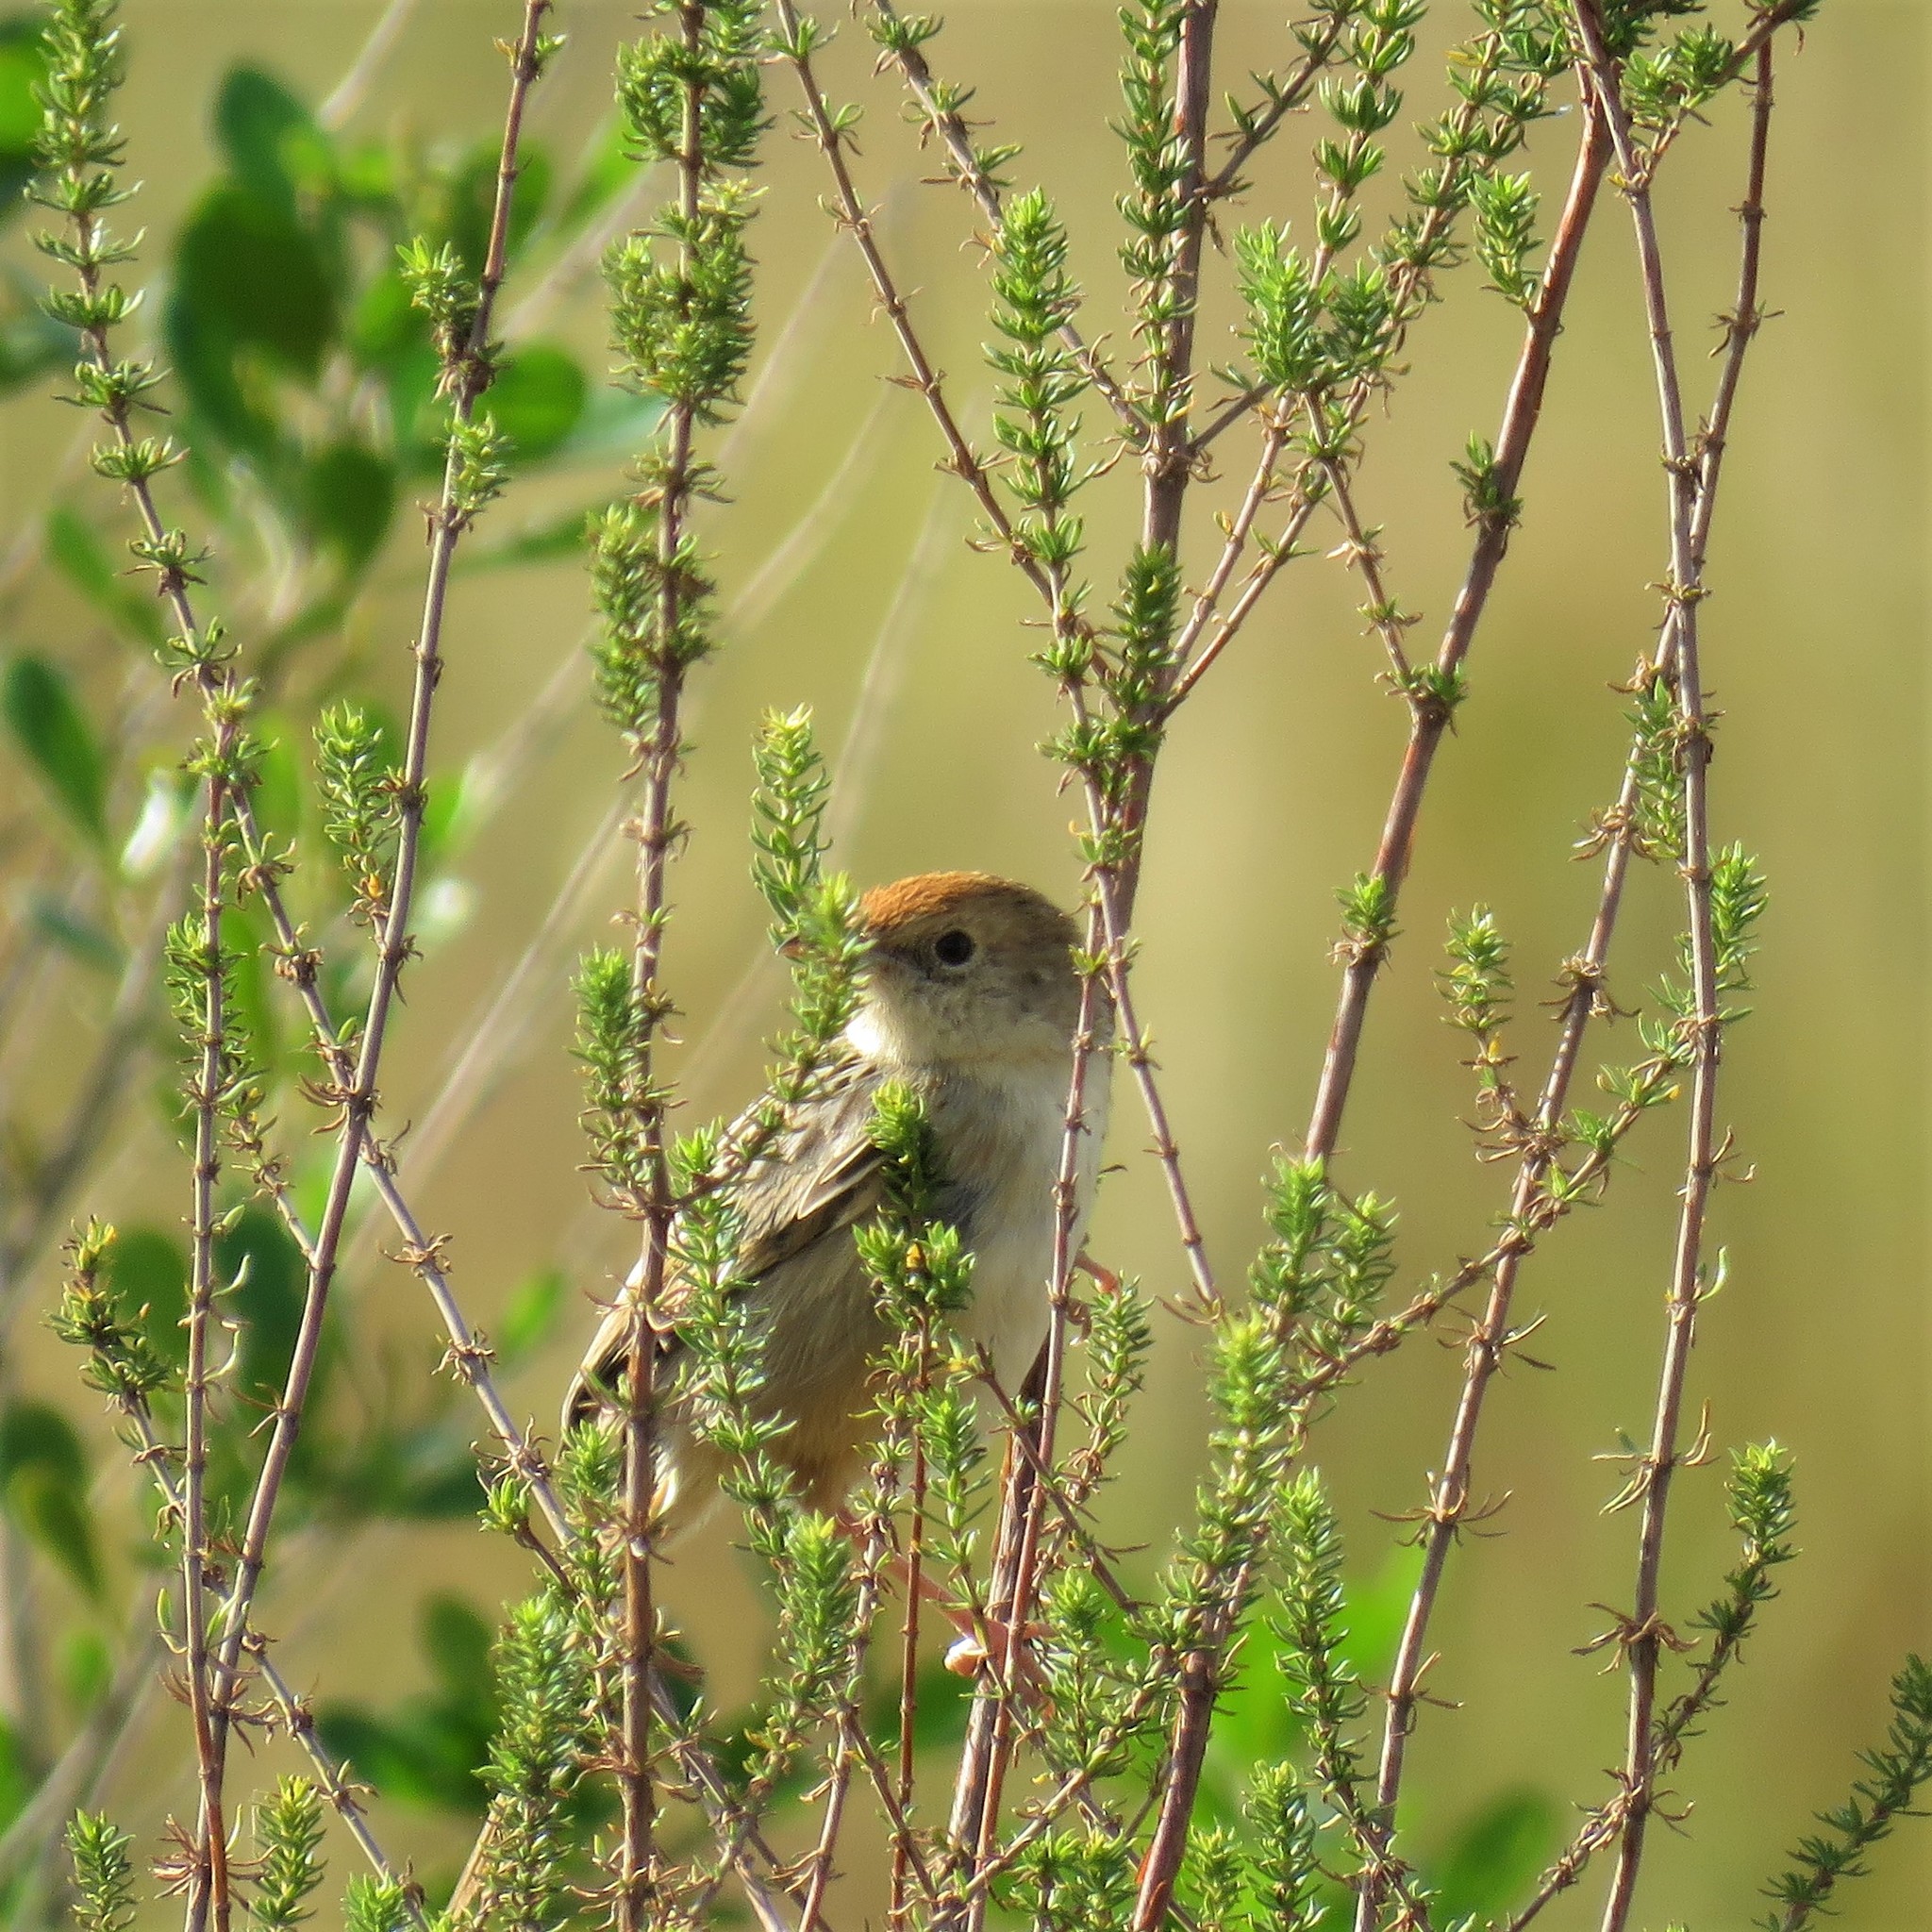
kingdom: Animalia
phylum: Chordata
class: Aves
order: Passeriformes
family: Cisticolidae
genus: Cisticola
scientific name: Cisticola lais
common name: Wailing cisticola
